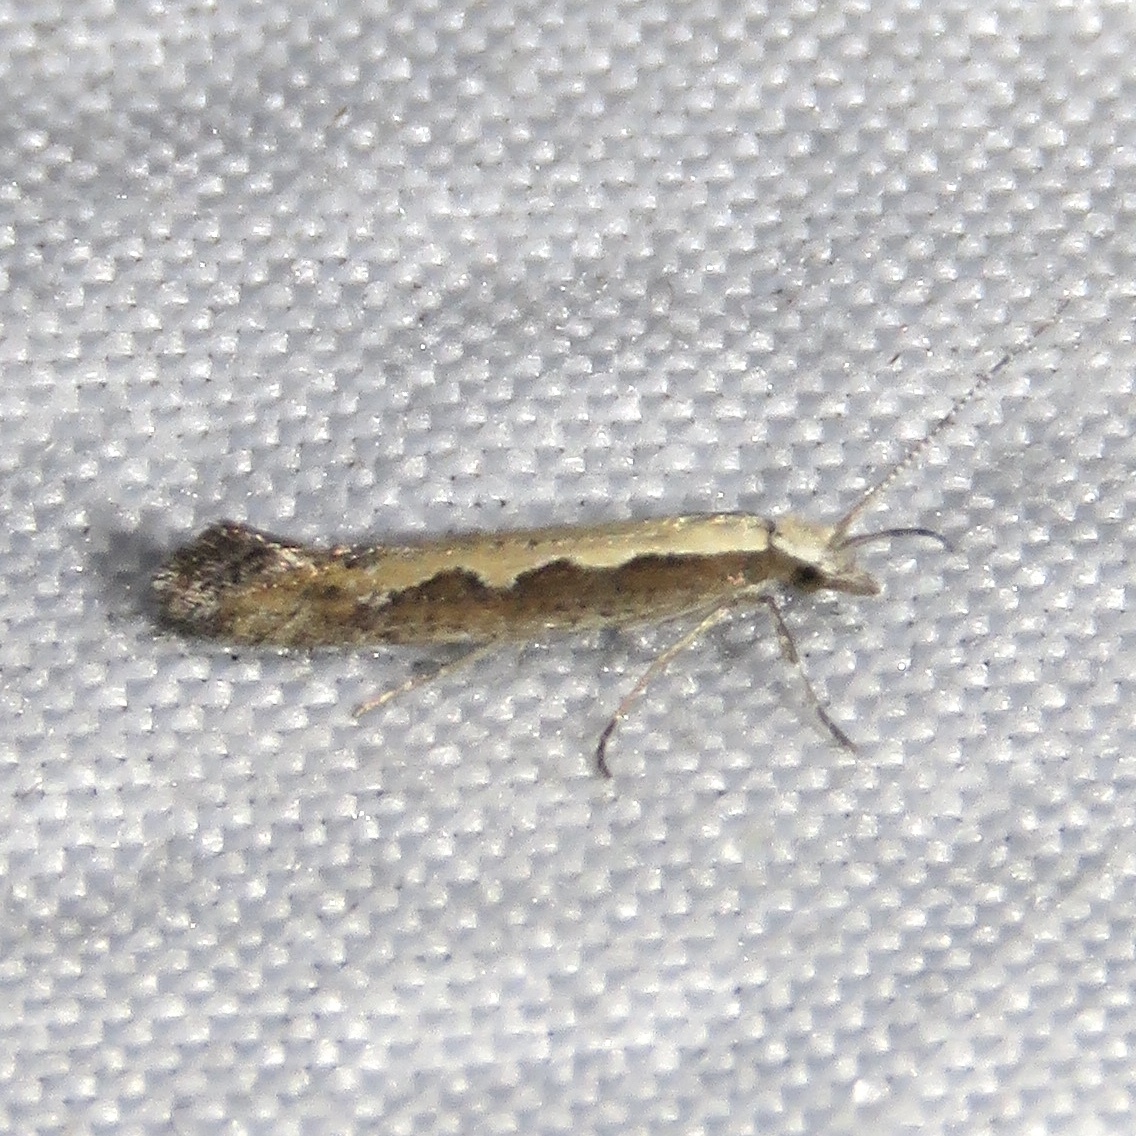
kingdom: Animalia
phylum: Arthropoda
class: Insecta
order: Lepidoptera
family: Plutellidae
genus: Plutella
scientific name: Plutella xylostella
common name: Diamond-back moth
